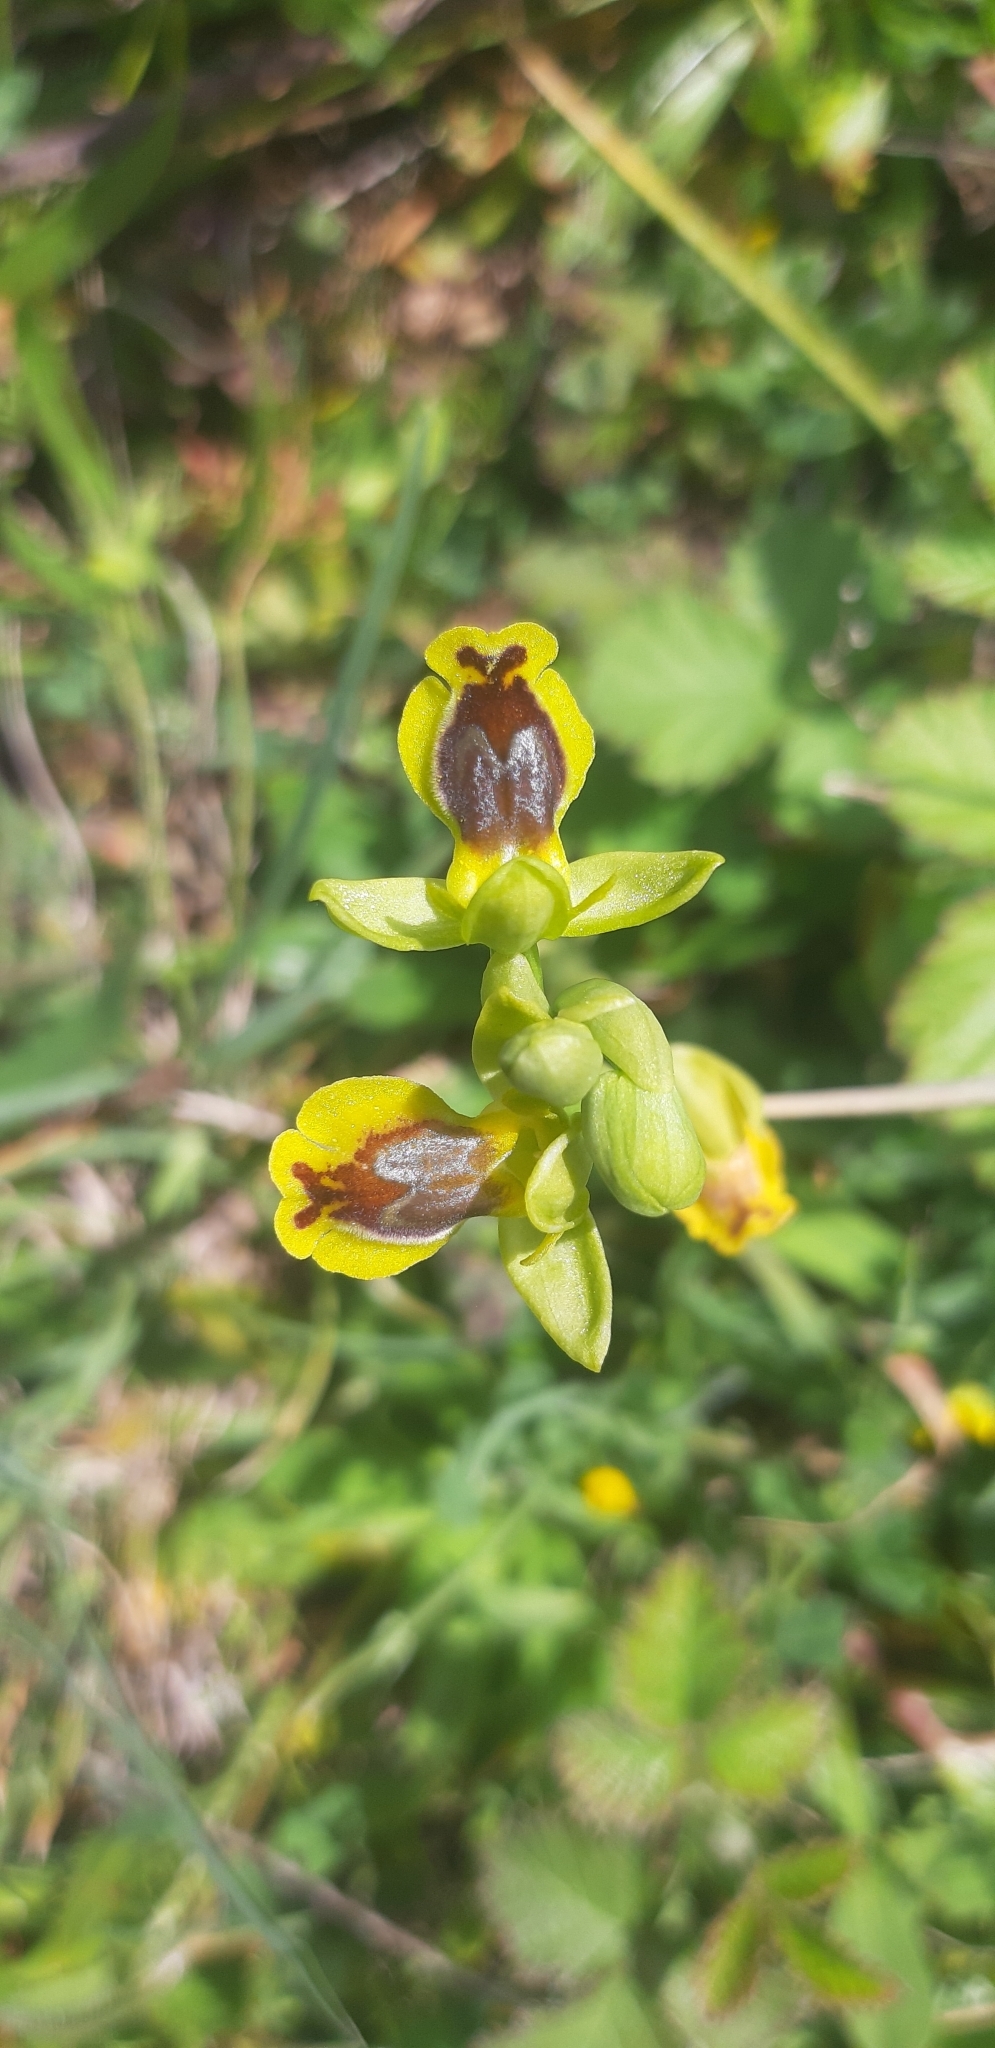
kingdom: Plantae
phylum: Tracheophyta
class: Liliopsida
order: Asparagales
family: Orchidaceae
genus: Ophrys
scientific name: Ophrys lutea
